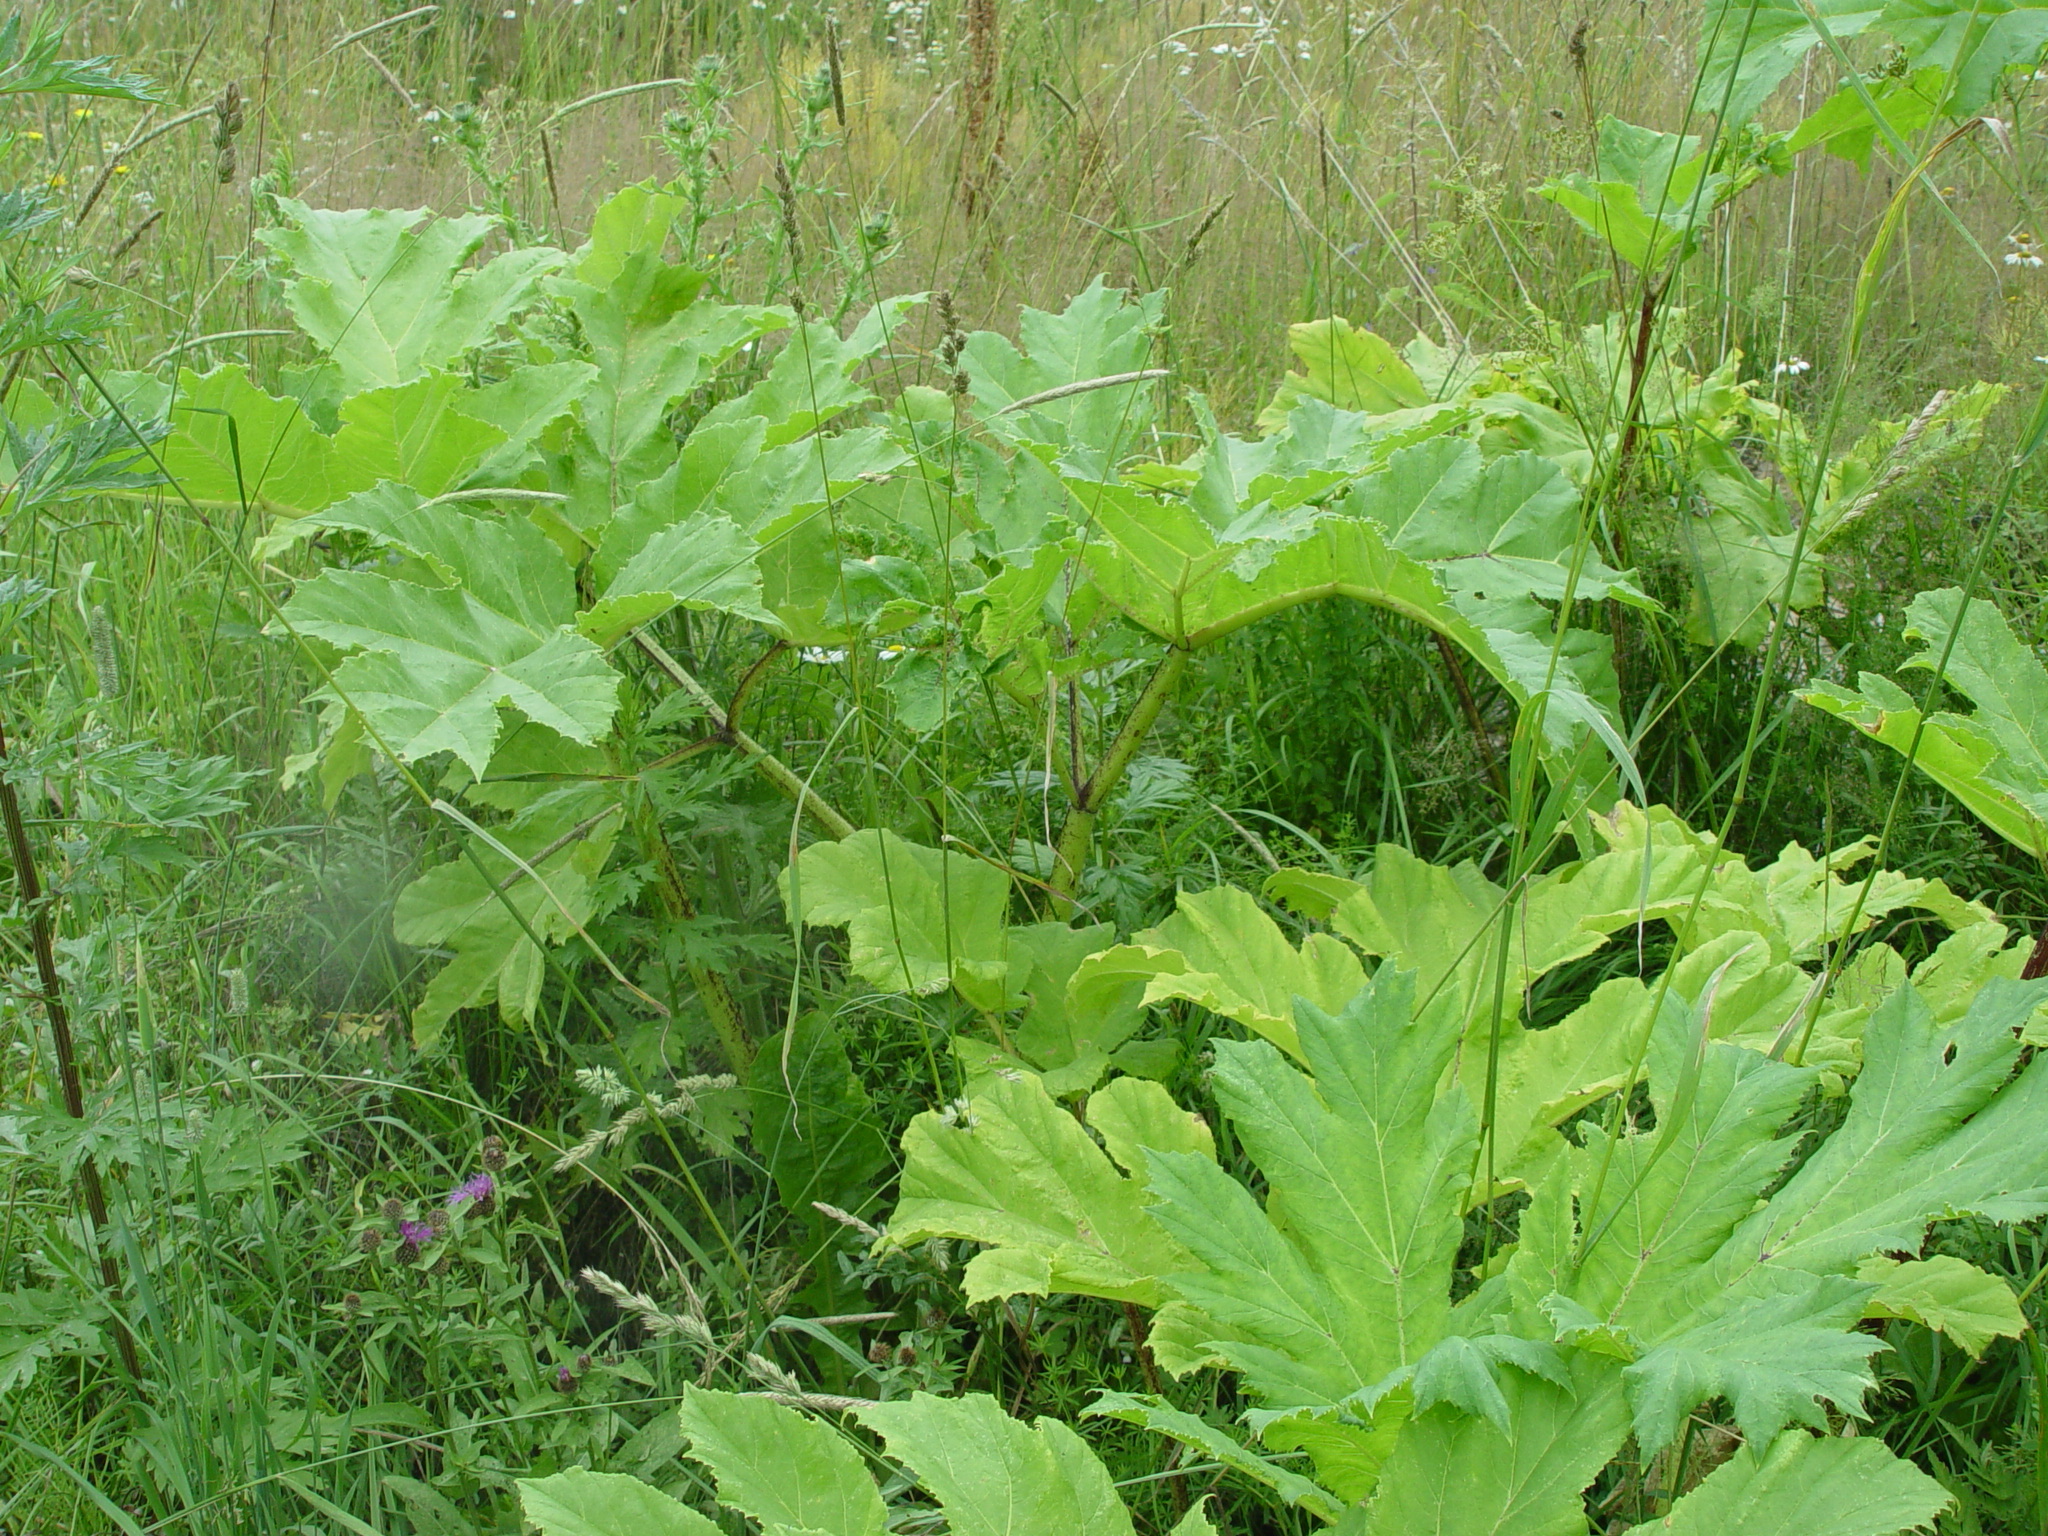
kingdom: Plantae
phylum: Tracheophyta
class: Magnoliopsida
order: Apiales
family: Apiaceae
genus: Heracleum
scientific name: Heracleum sosnowskyi
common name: Sosnowsky's hogweed
